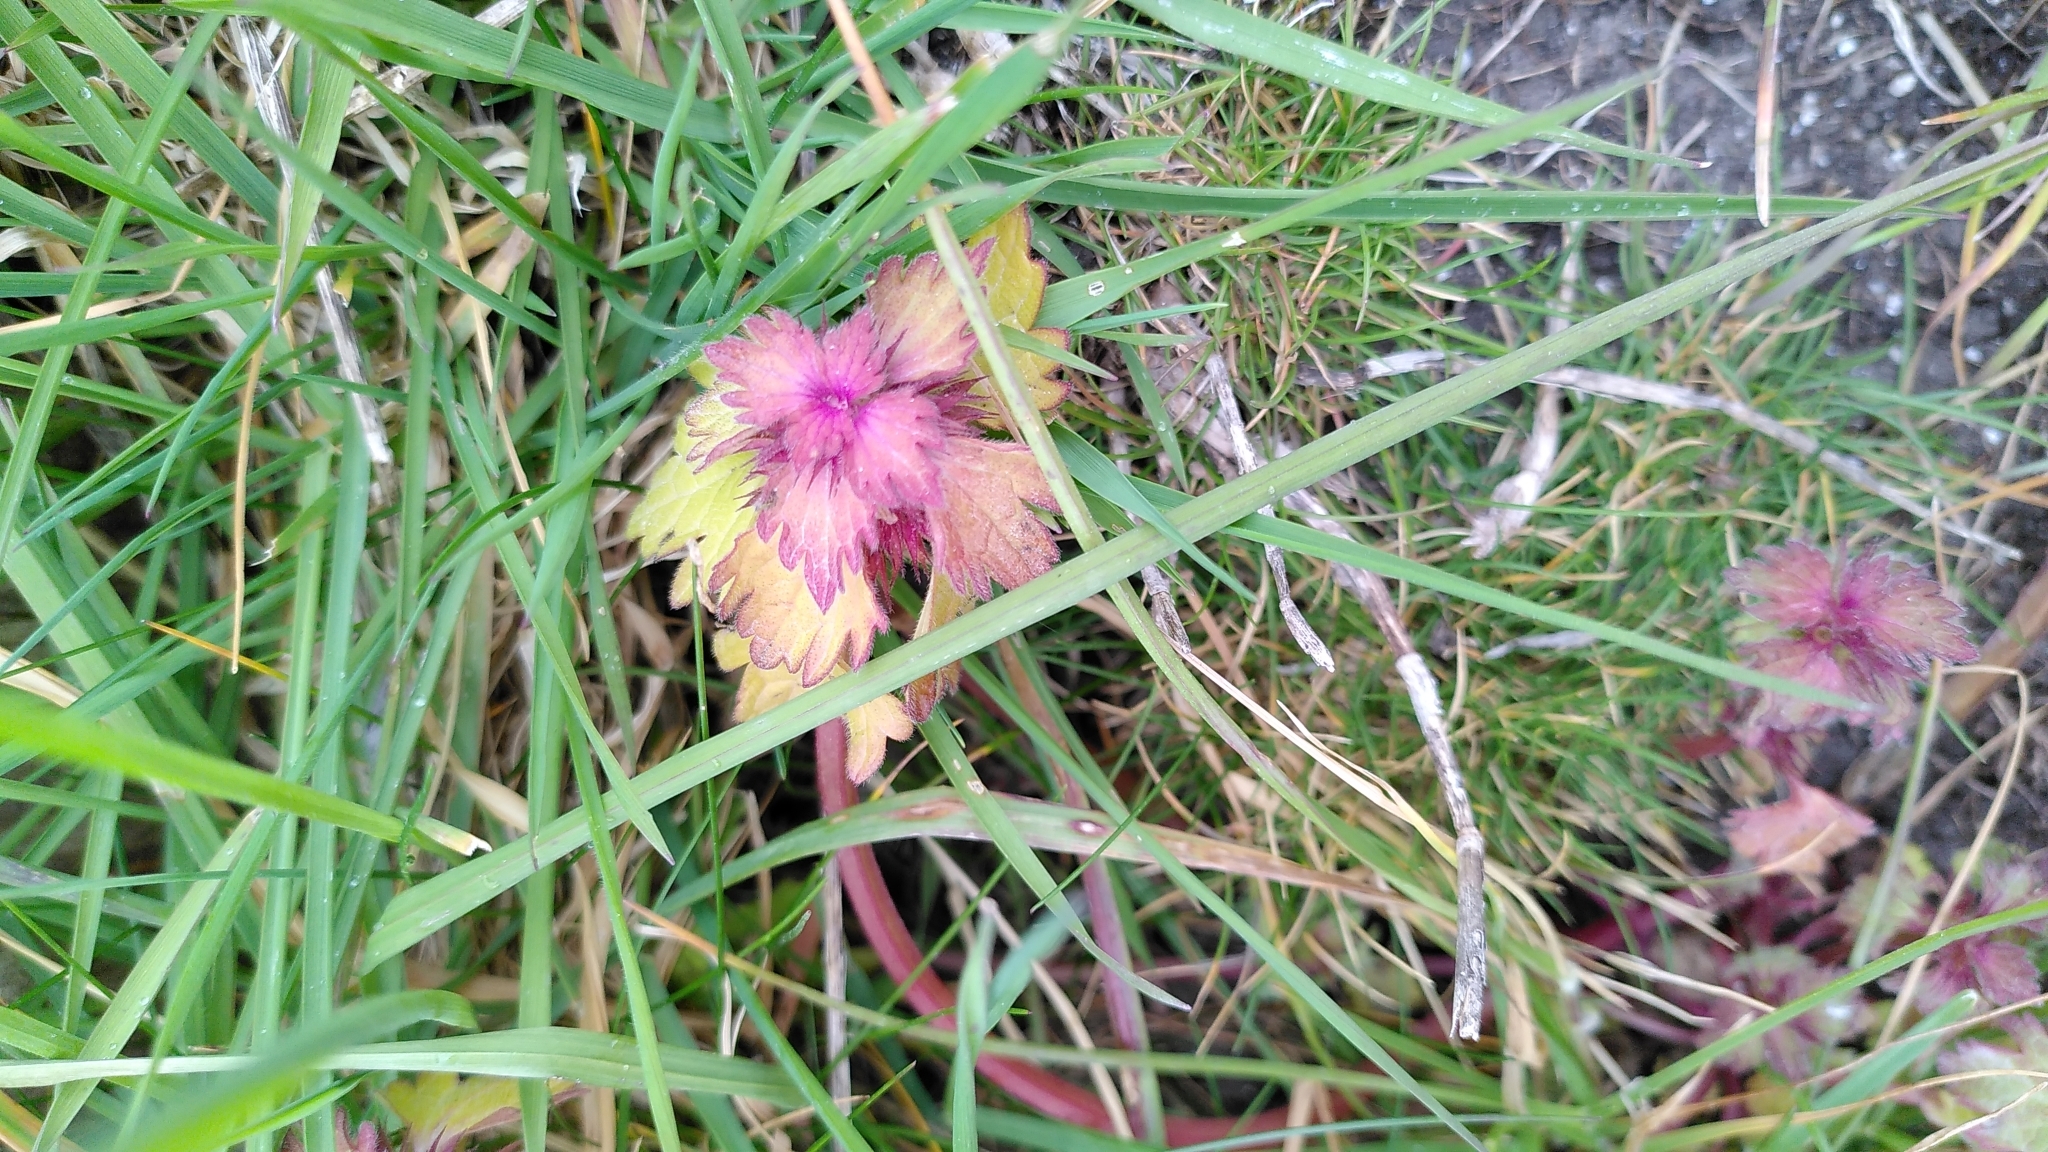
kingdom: Plantae
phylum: Tracheophyta
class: Magnoliopsida
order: Lamiales
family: Lamiaceae
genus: Lamium
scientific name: Lamium purpureum
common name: Red dead-nettle
